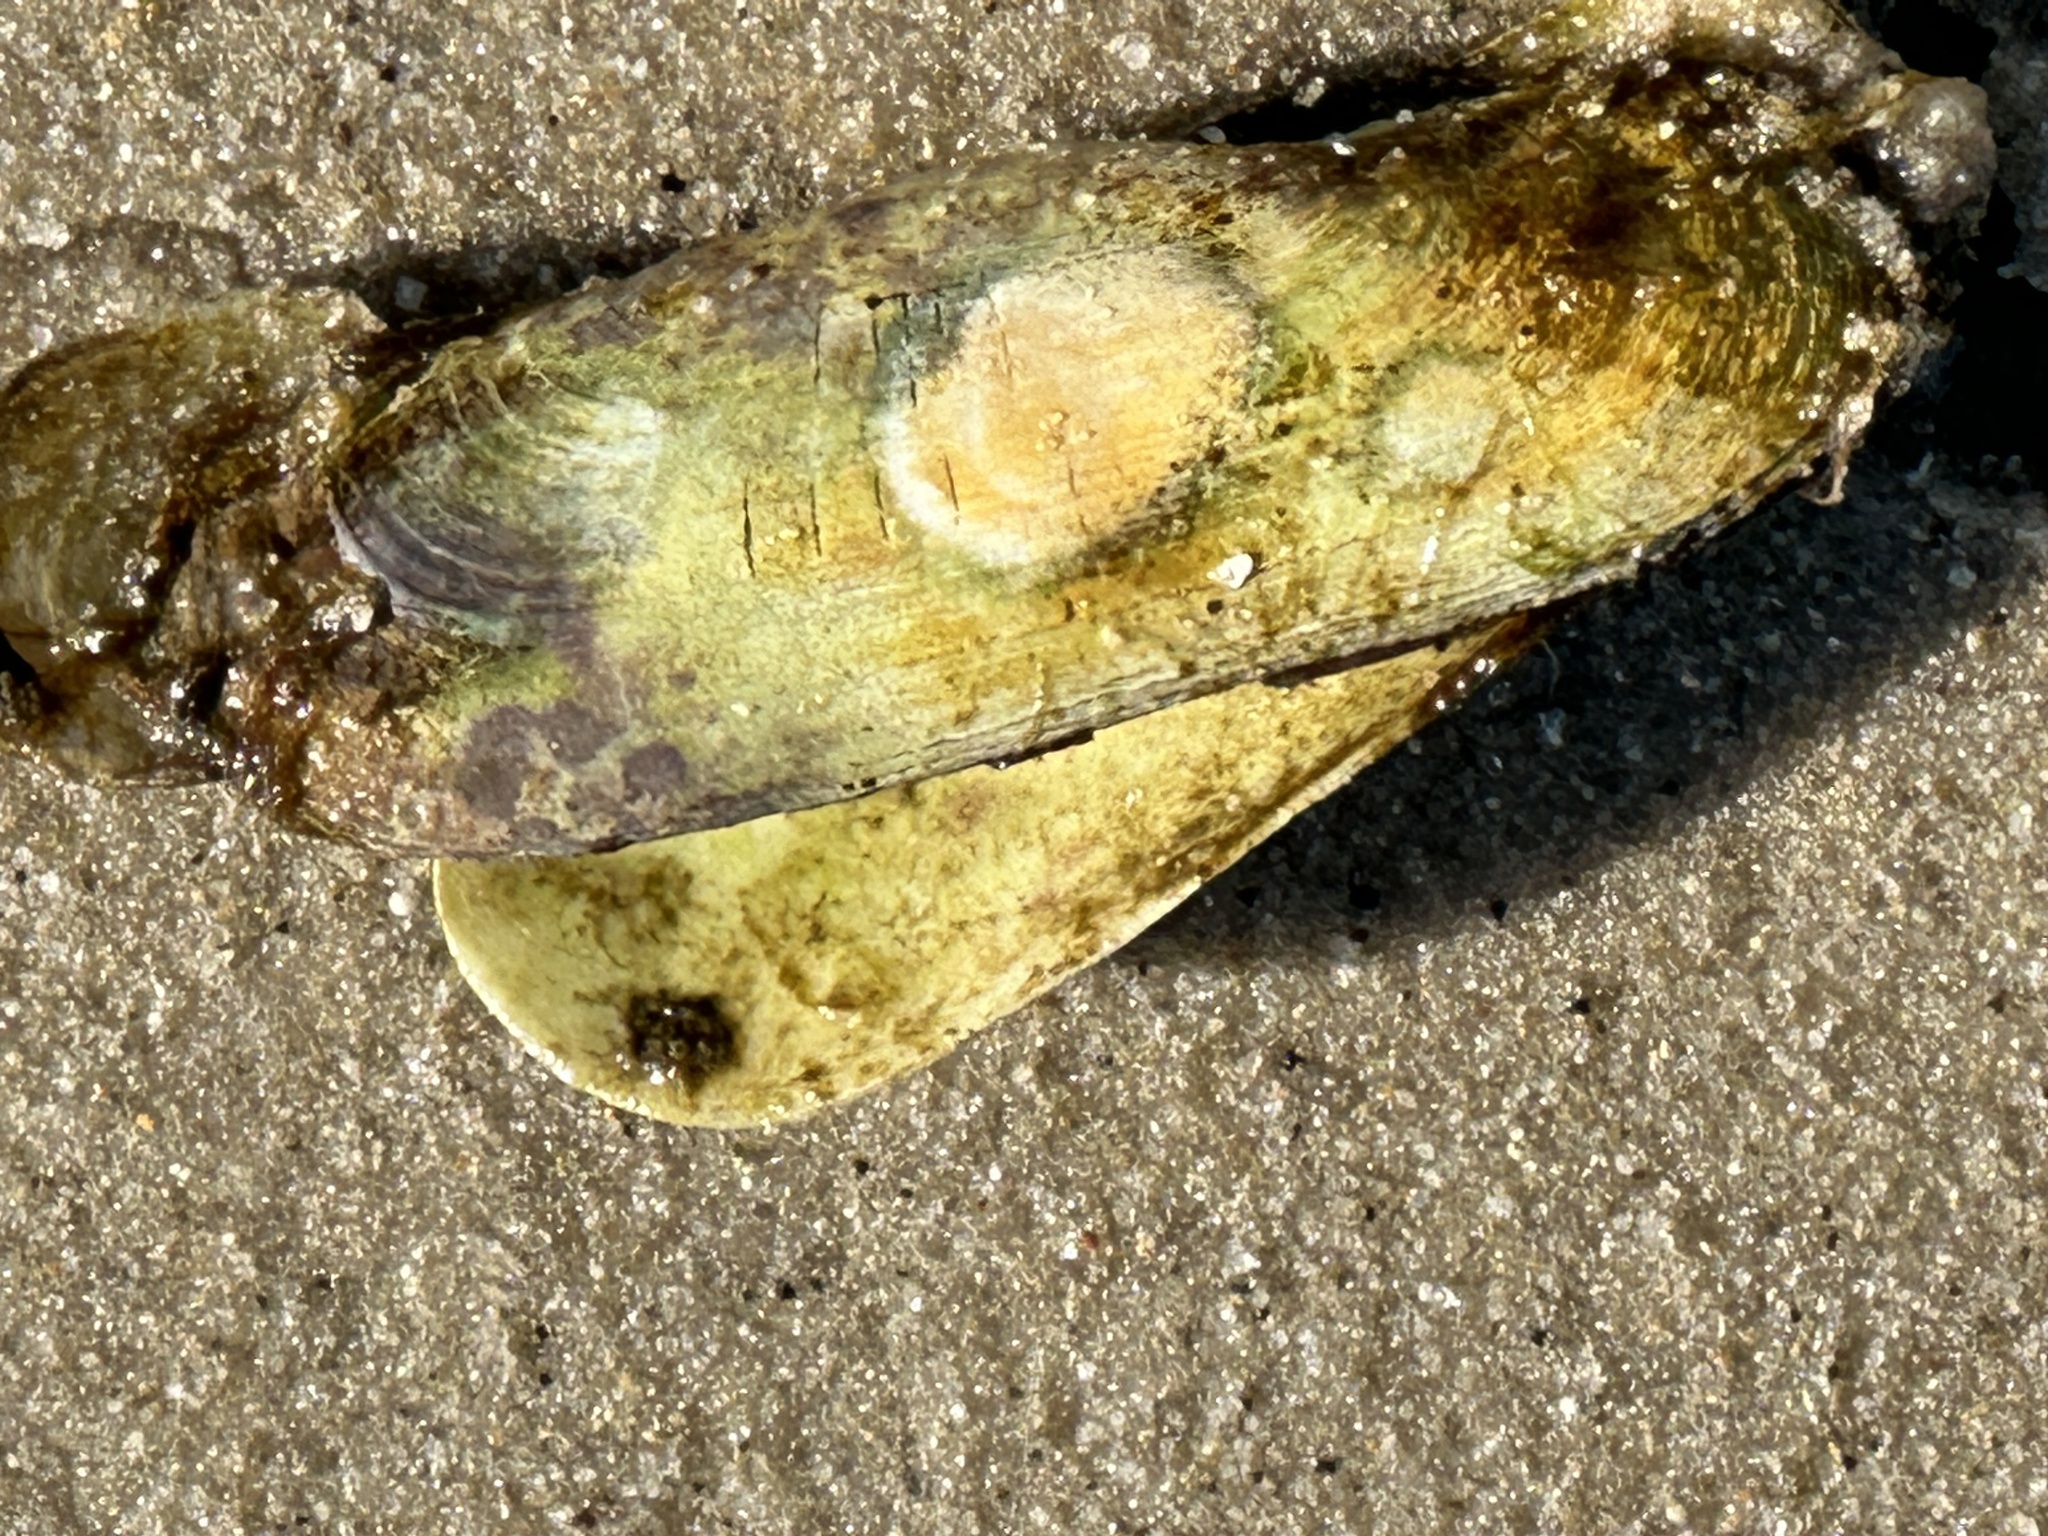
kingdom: Animalia
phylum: Mollusca
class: Bivalvia
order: Cardiida
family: Solecurtidae
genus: Tagelus
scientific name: Tagelus plebeius
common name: Stout tagelus
